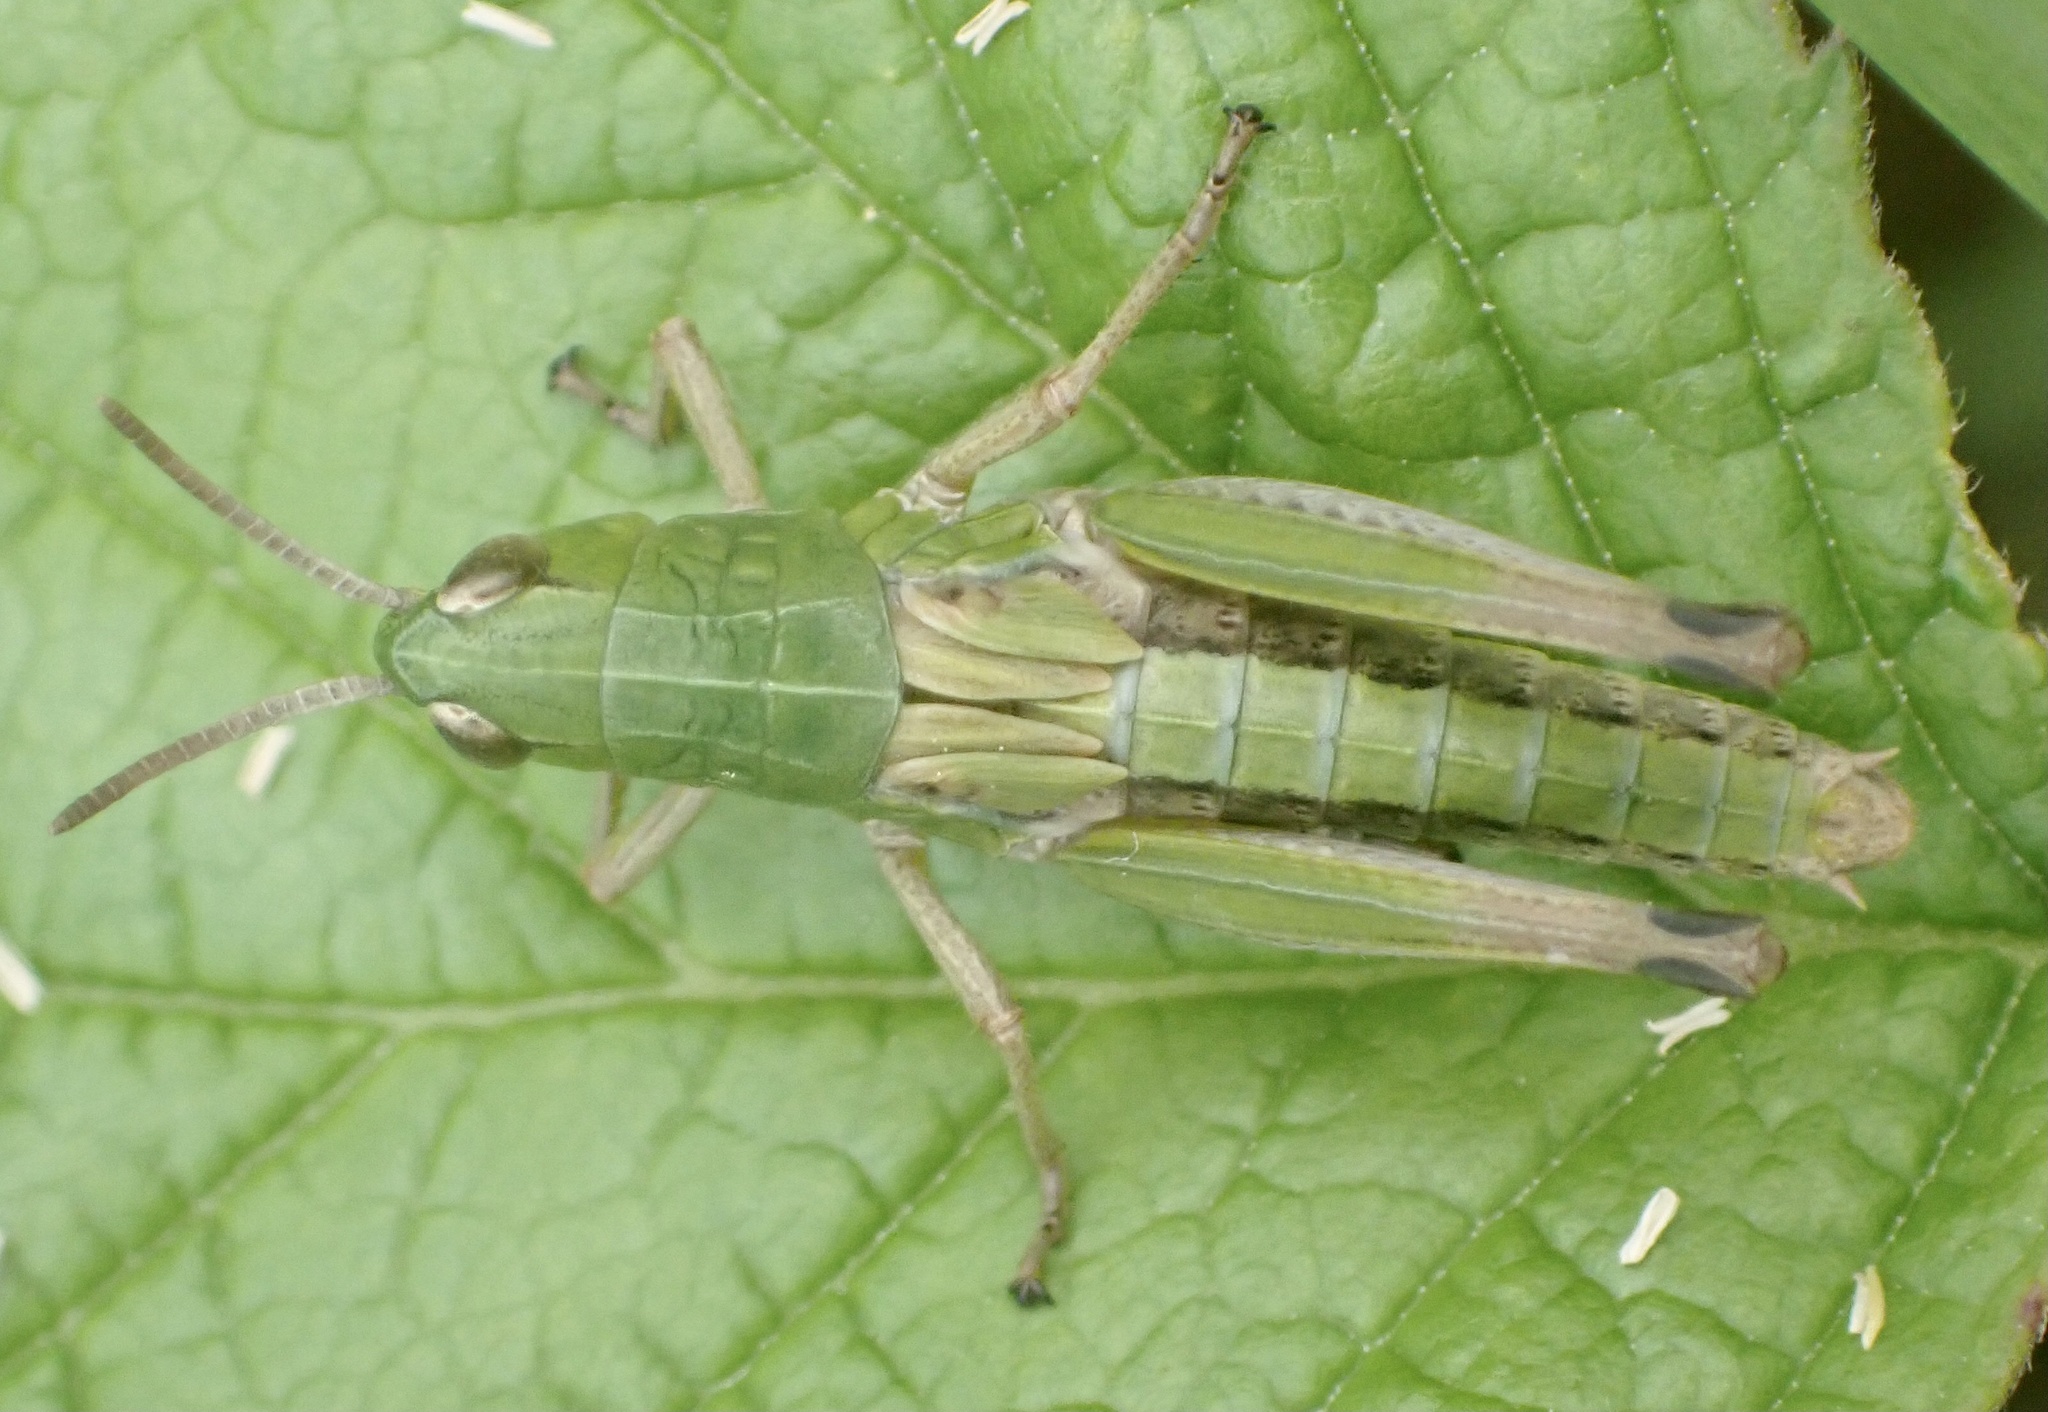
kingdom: Animalia
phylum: Arthropoda
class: Insecta
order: Orthoptera
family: Acrididae
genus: Pseudochorthippus
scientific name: Pseudochorthippus parallelus
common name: Meadow grasshopper
